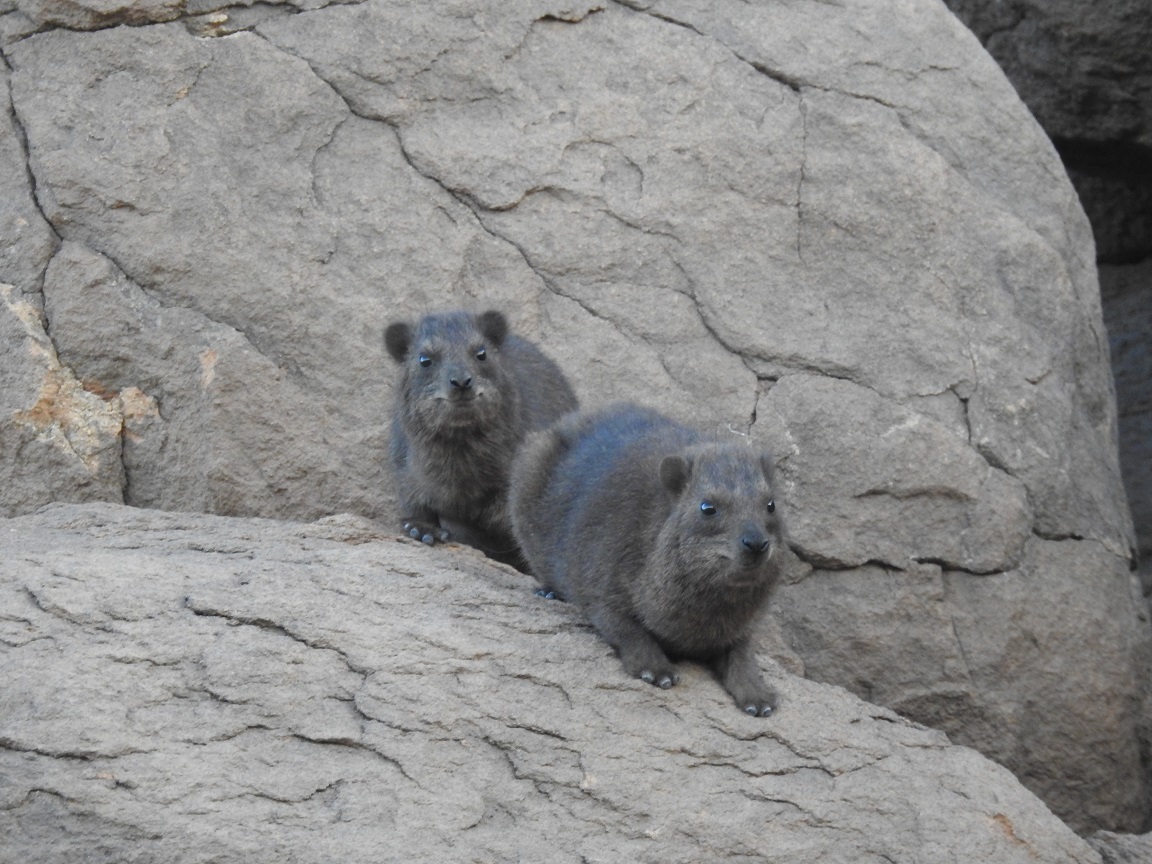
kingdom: Animalia
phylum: Chordata
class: Mammalia
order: Hyracoidea
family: Procaviidae
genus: Procavia
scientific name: Procavia capensis
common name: Rock hyrax
